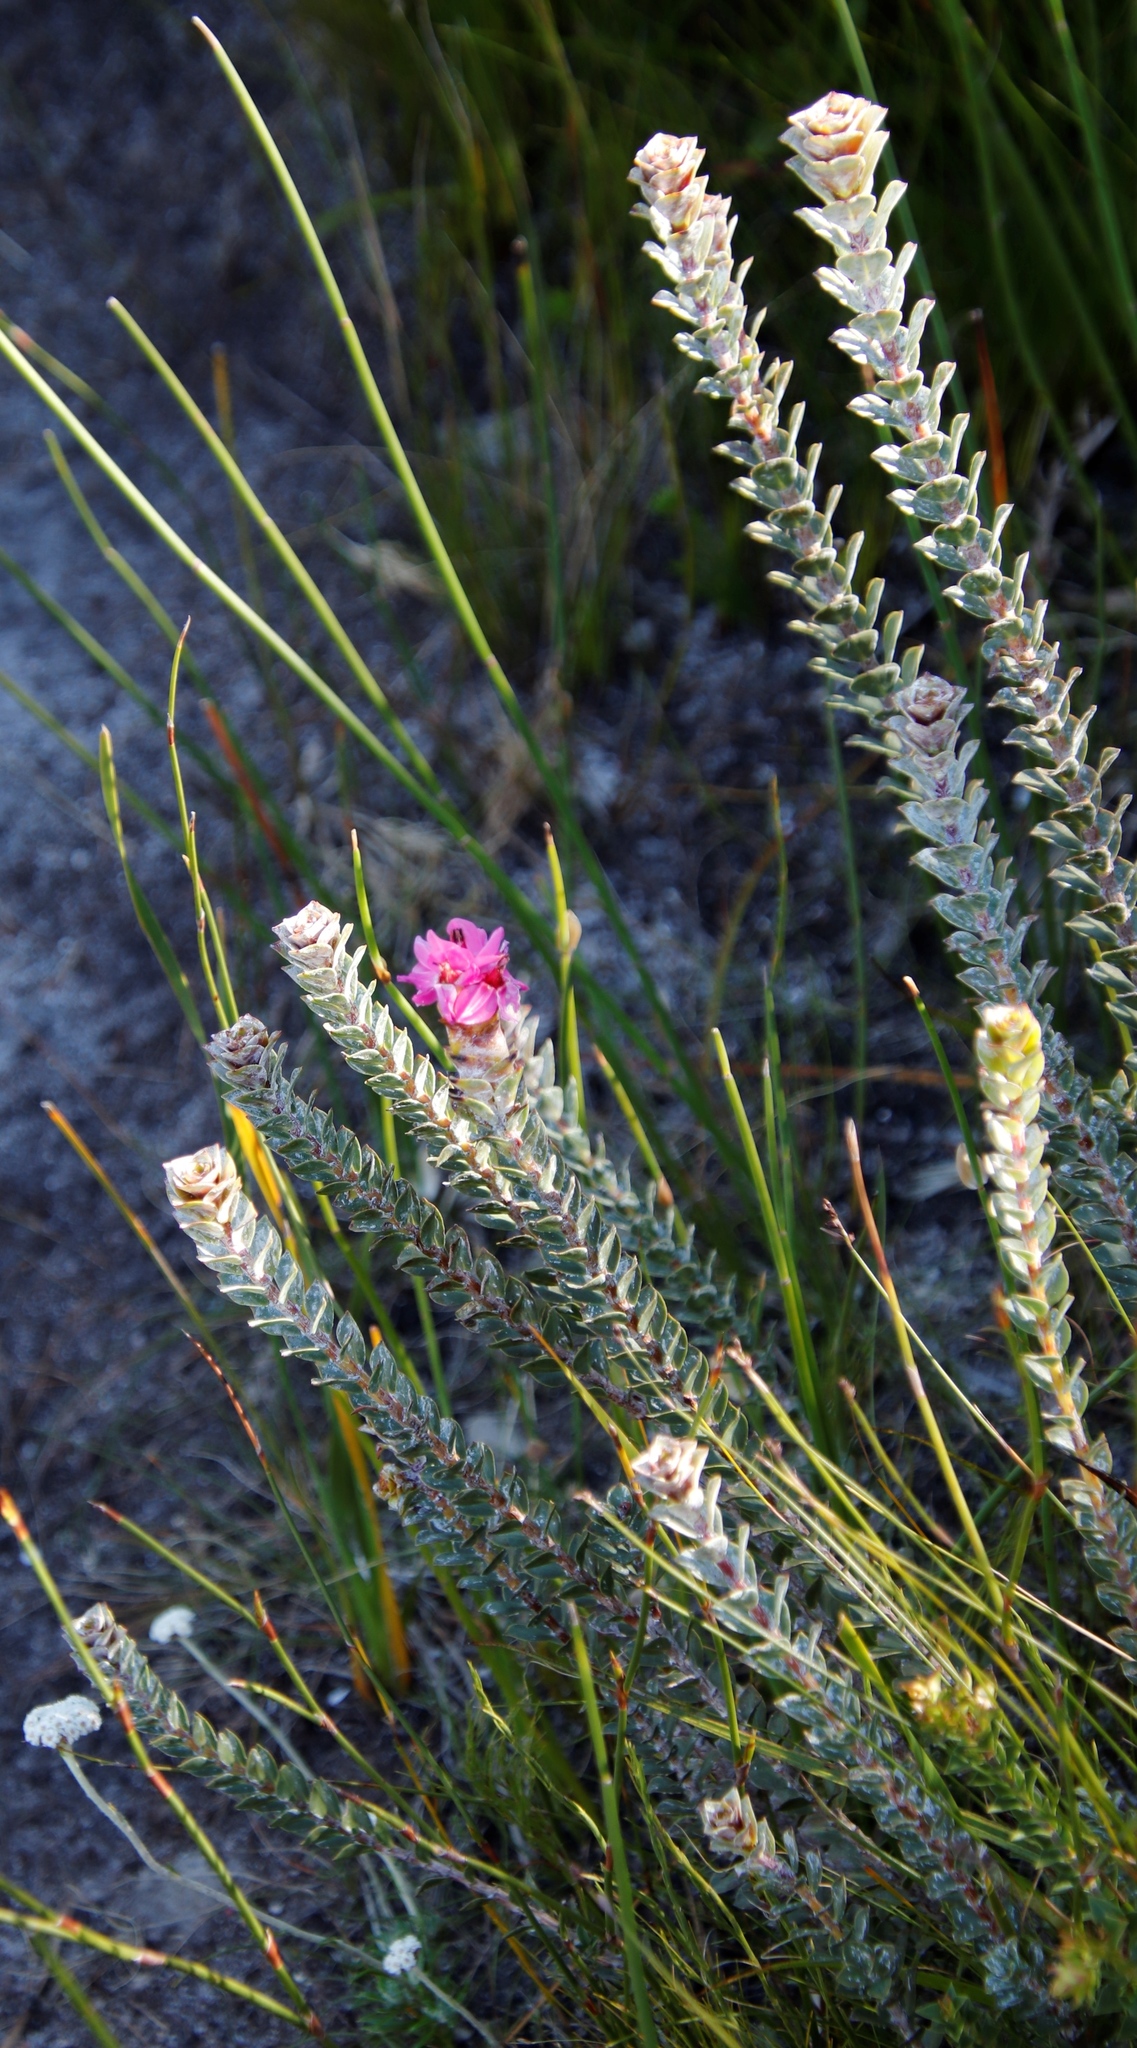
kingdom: Plantae
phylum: Tracheophyta
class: Magnoliopsida
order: Myrtales
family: Penaeaceae
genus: Saltera
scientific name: Saltera sarcocolla
